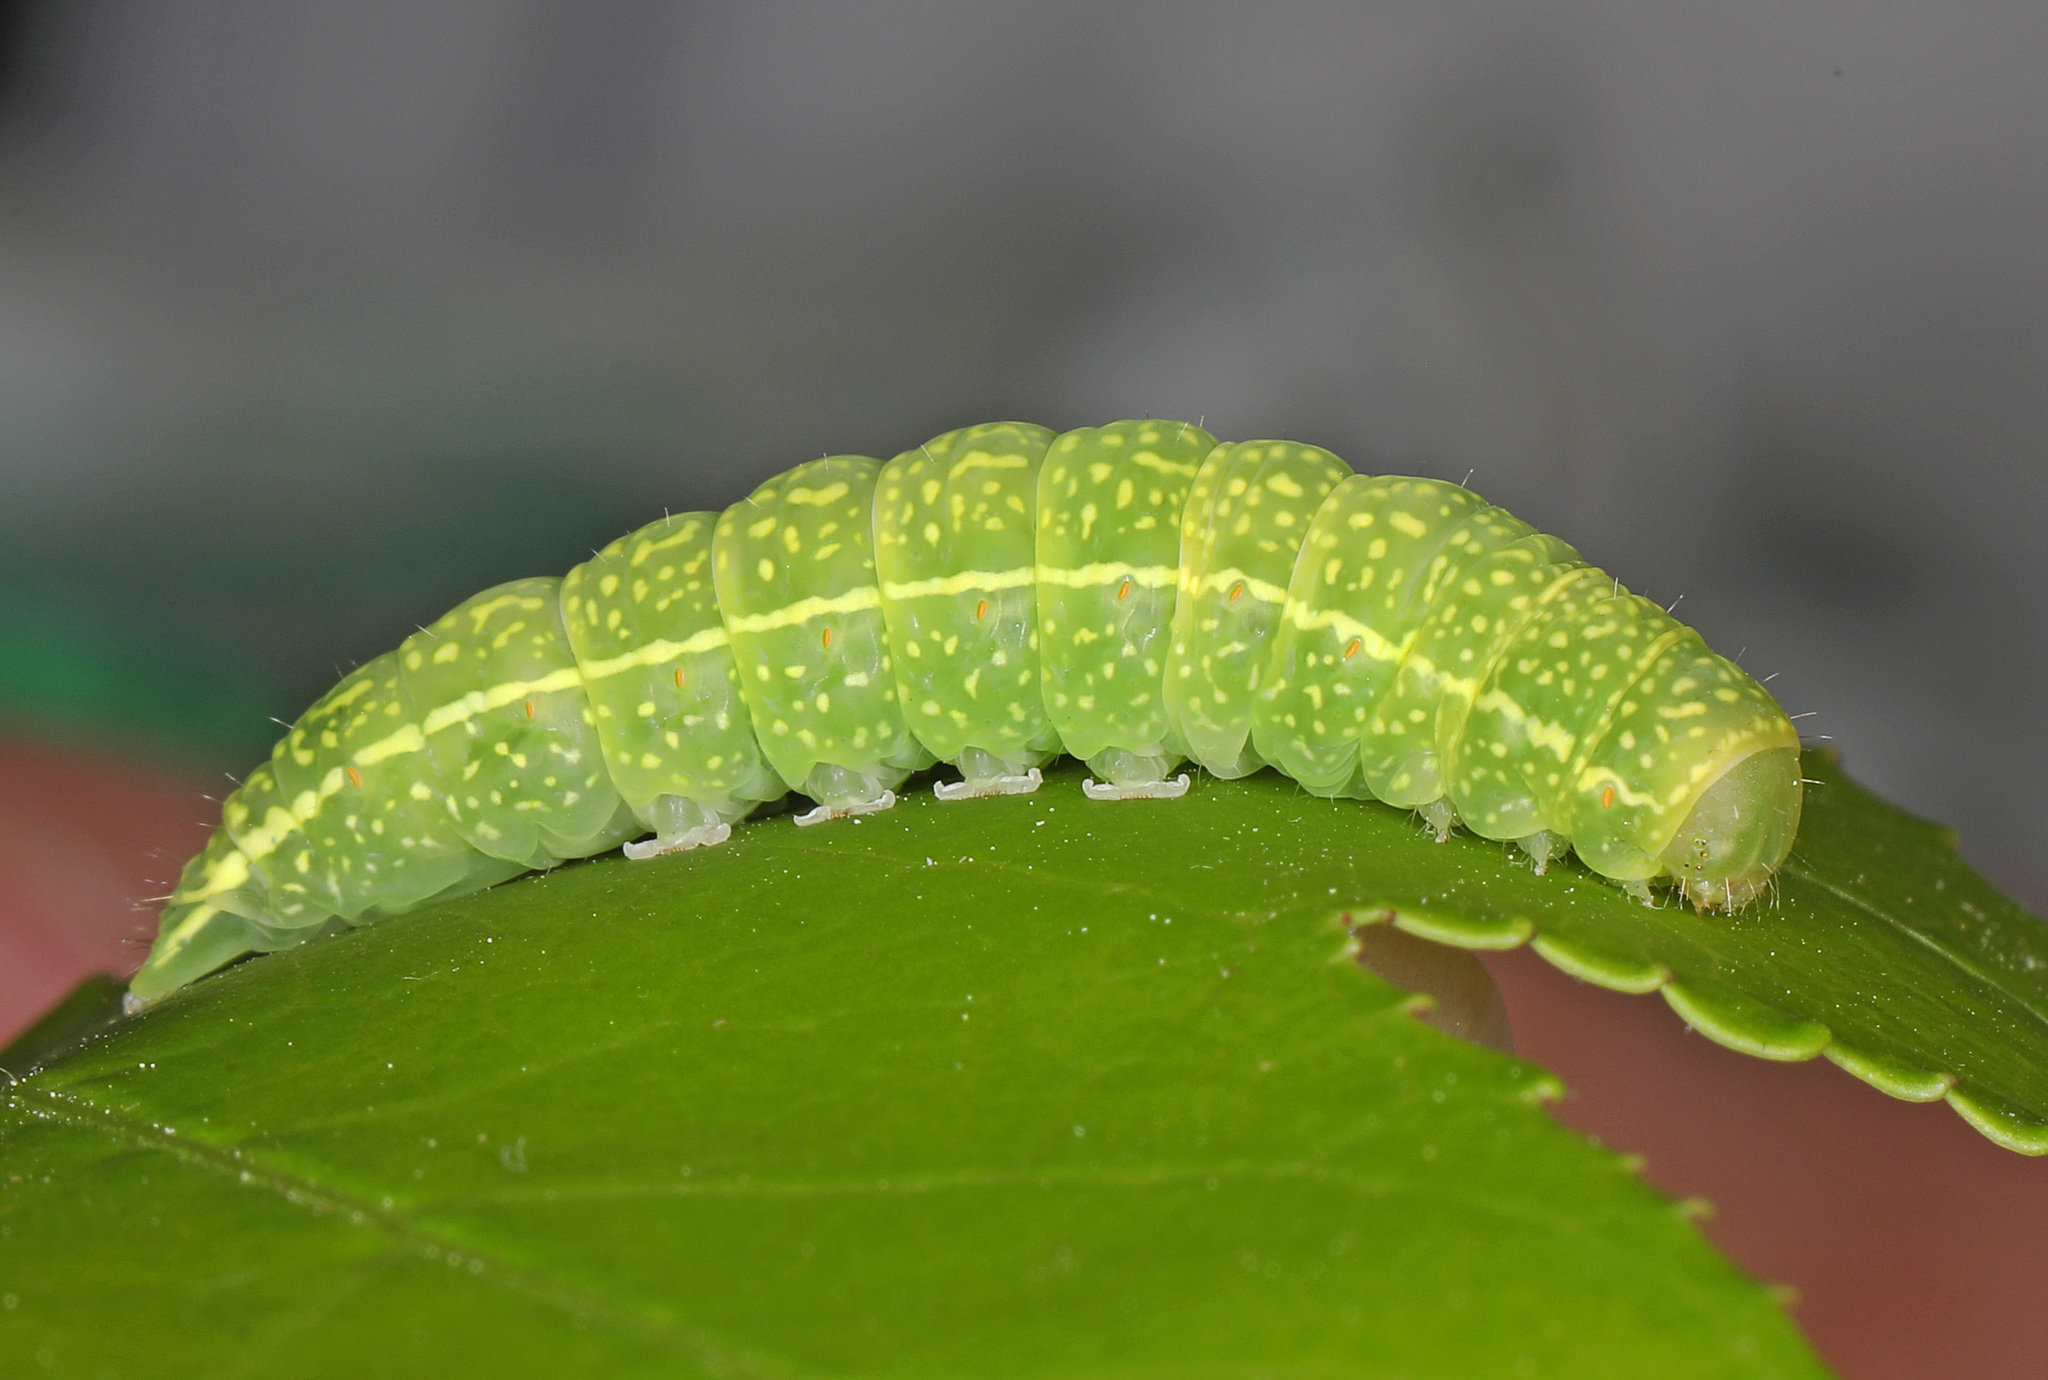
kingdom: Animalia
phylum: Arthropoda
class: Insecta
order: Lepidoptera
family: Euteliidae
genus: Paectes
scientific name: Paectes abrostoloides
